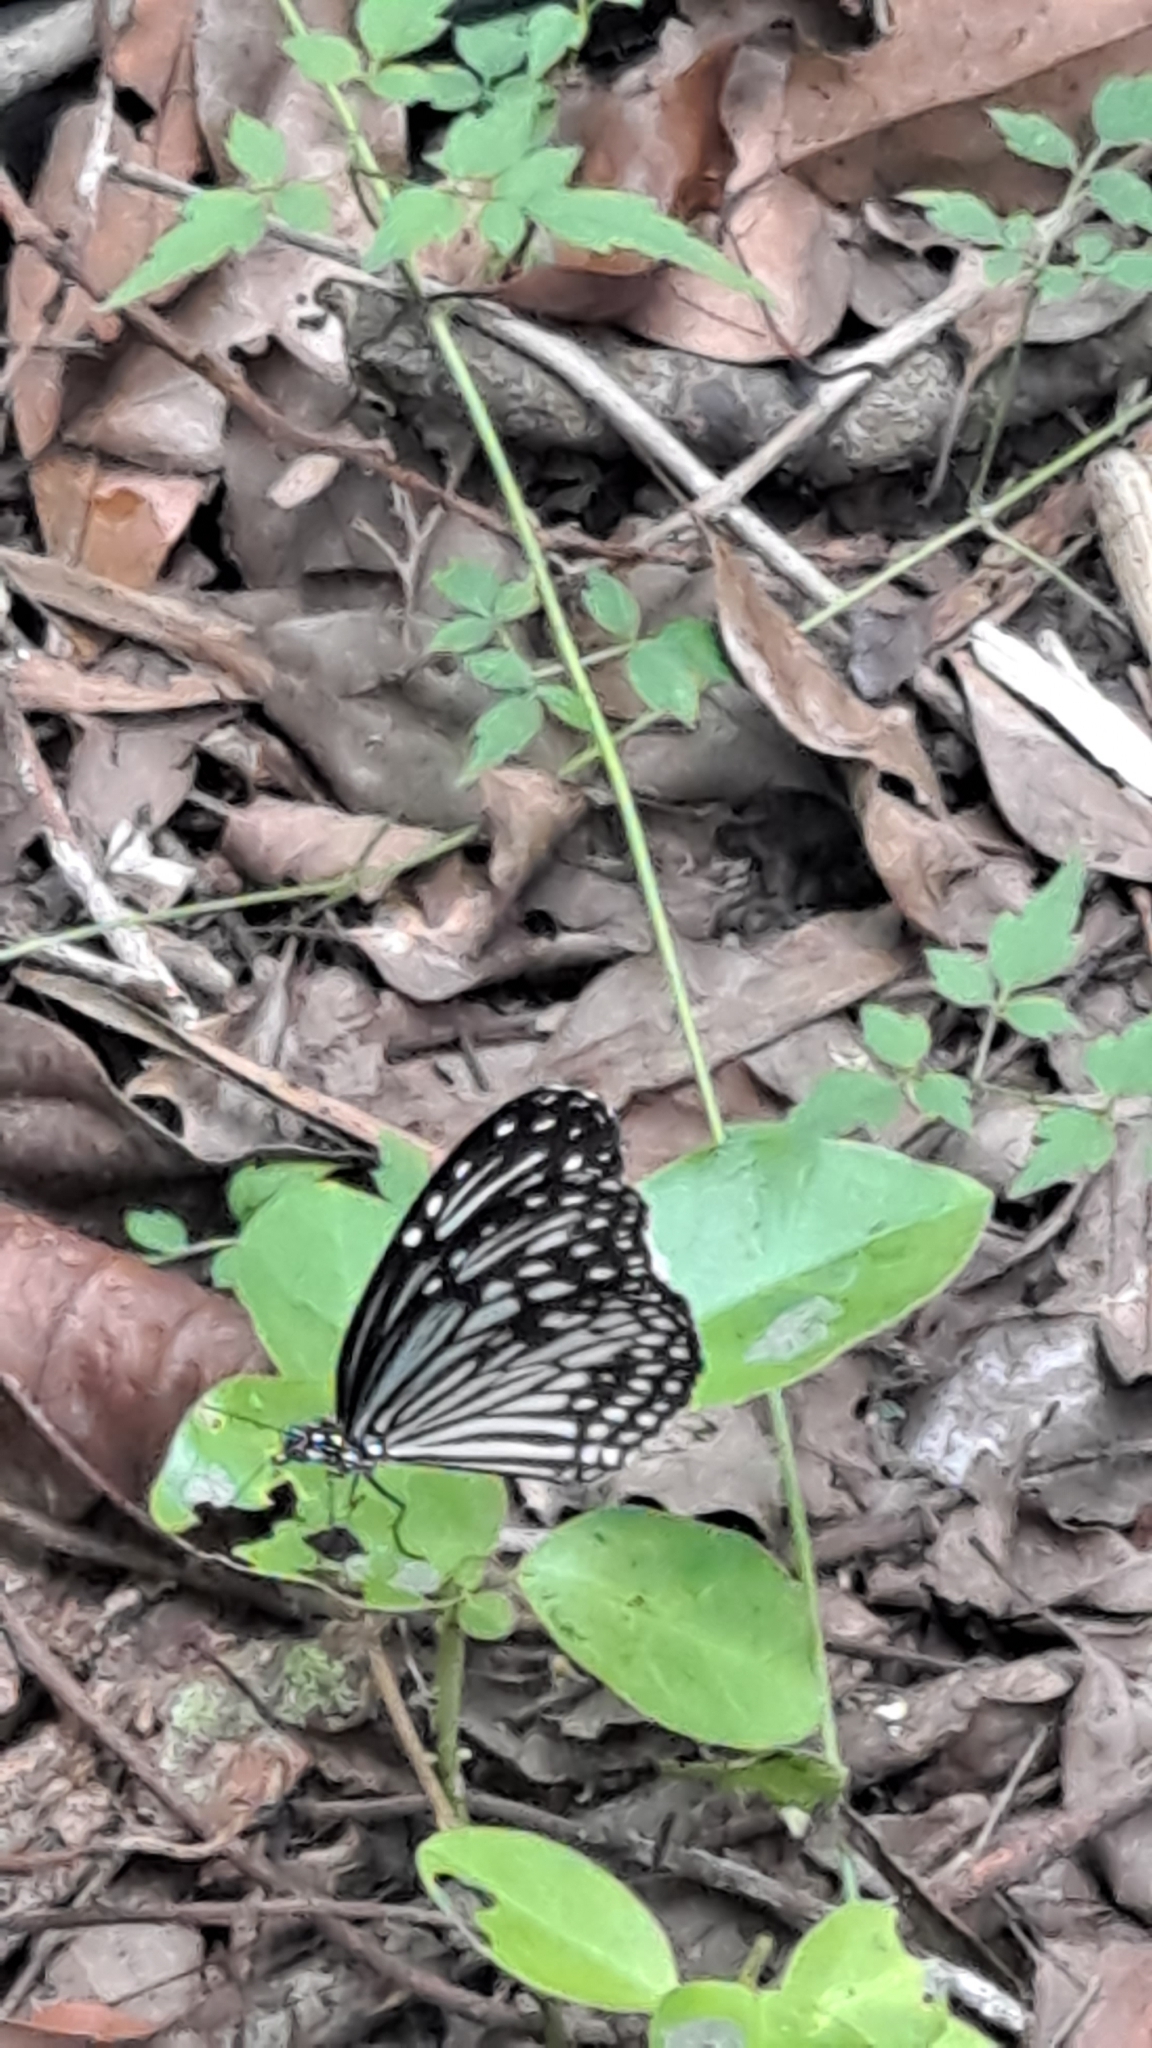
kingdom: Animalia
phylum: Arthropoda
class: Insecta
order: Lepidoptera
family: Nymphalidae
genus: Parantica
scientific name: Parantica aglea
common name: Glassy tiger
